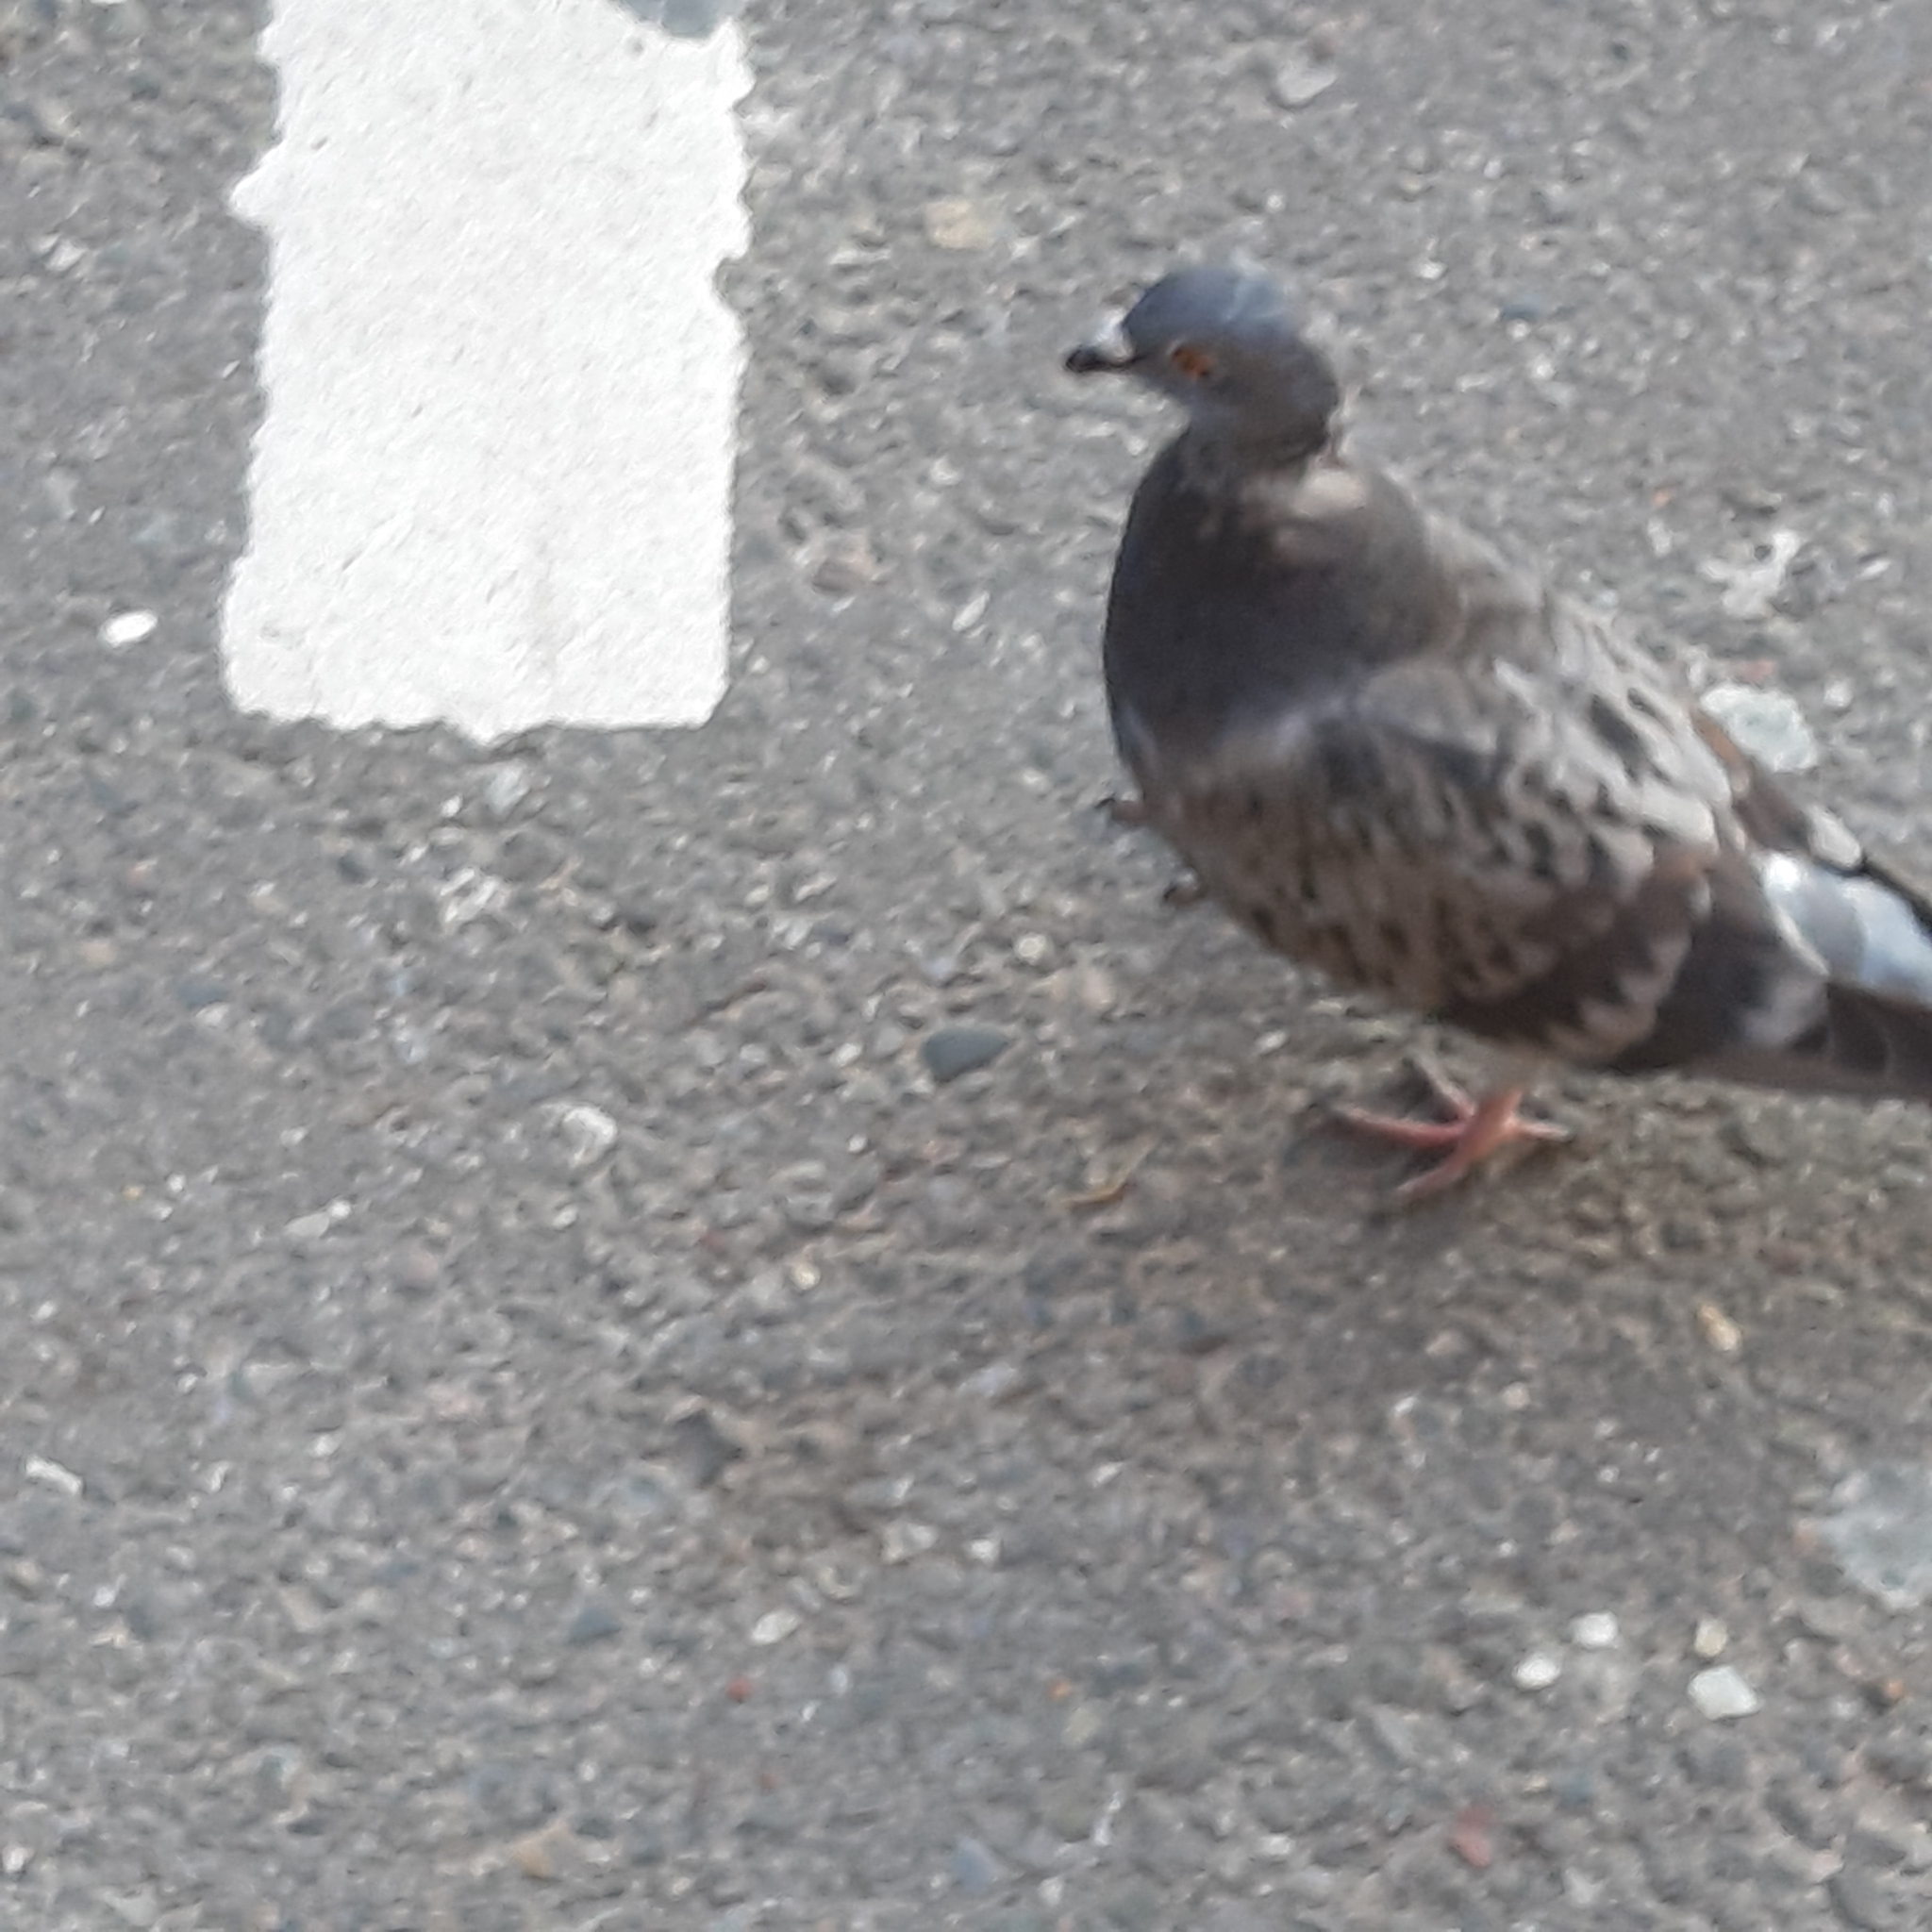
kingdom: Animalia
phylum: Chordata
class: Aves
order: Columbiformes
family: Columbidae
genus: Columba
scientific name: Columba livia
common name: Rock pigeon
